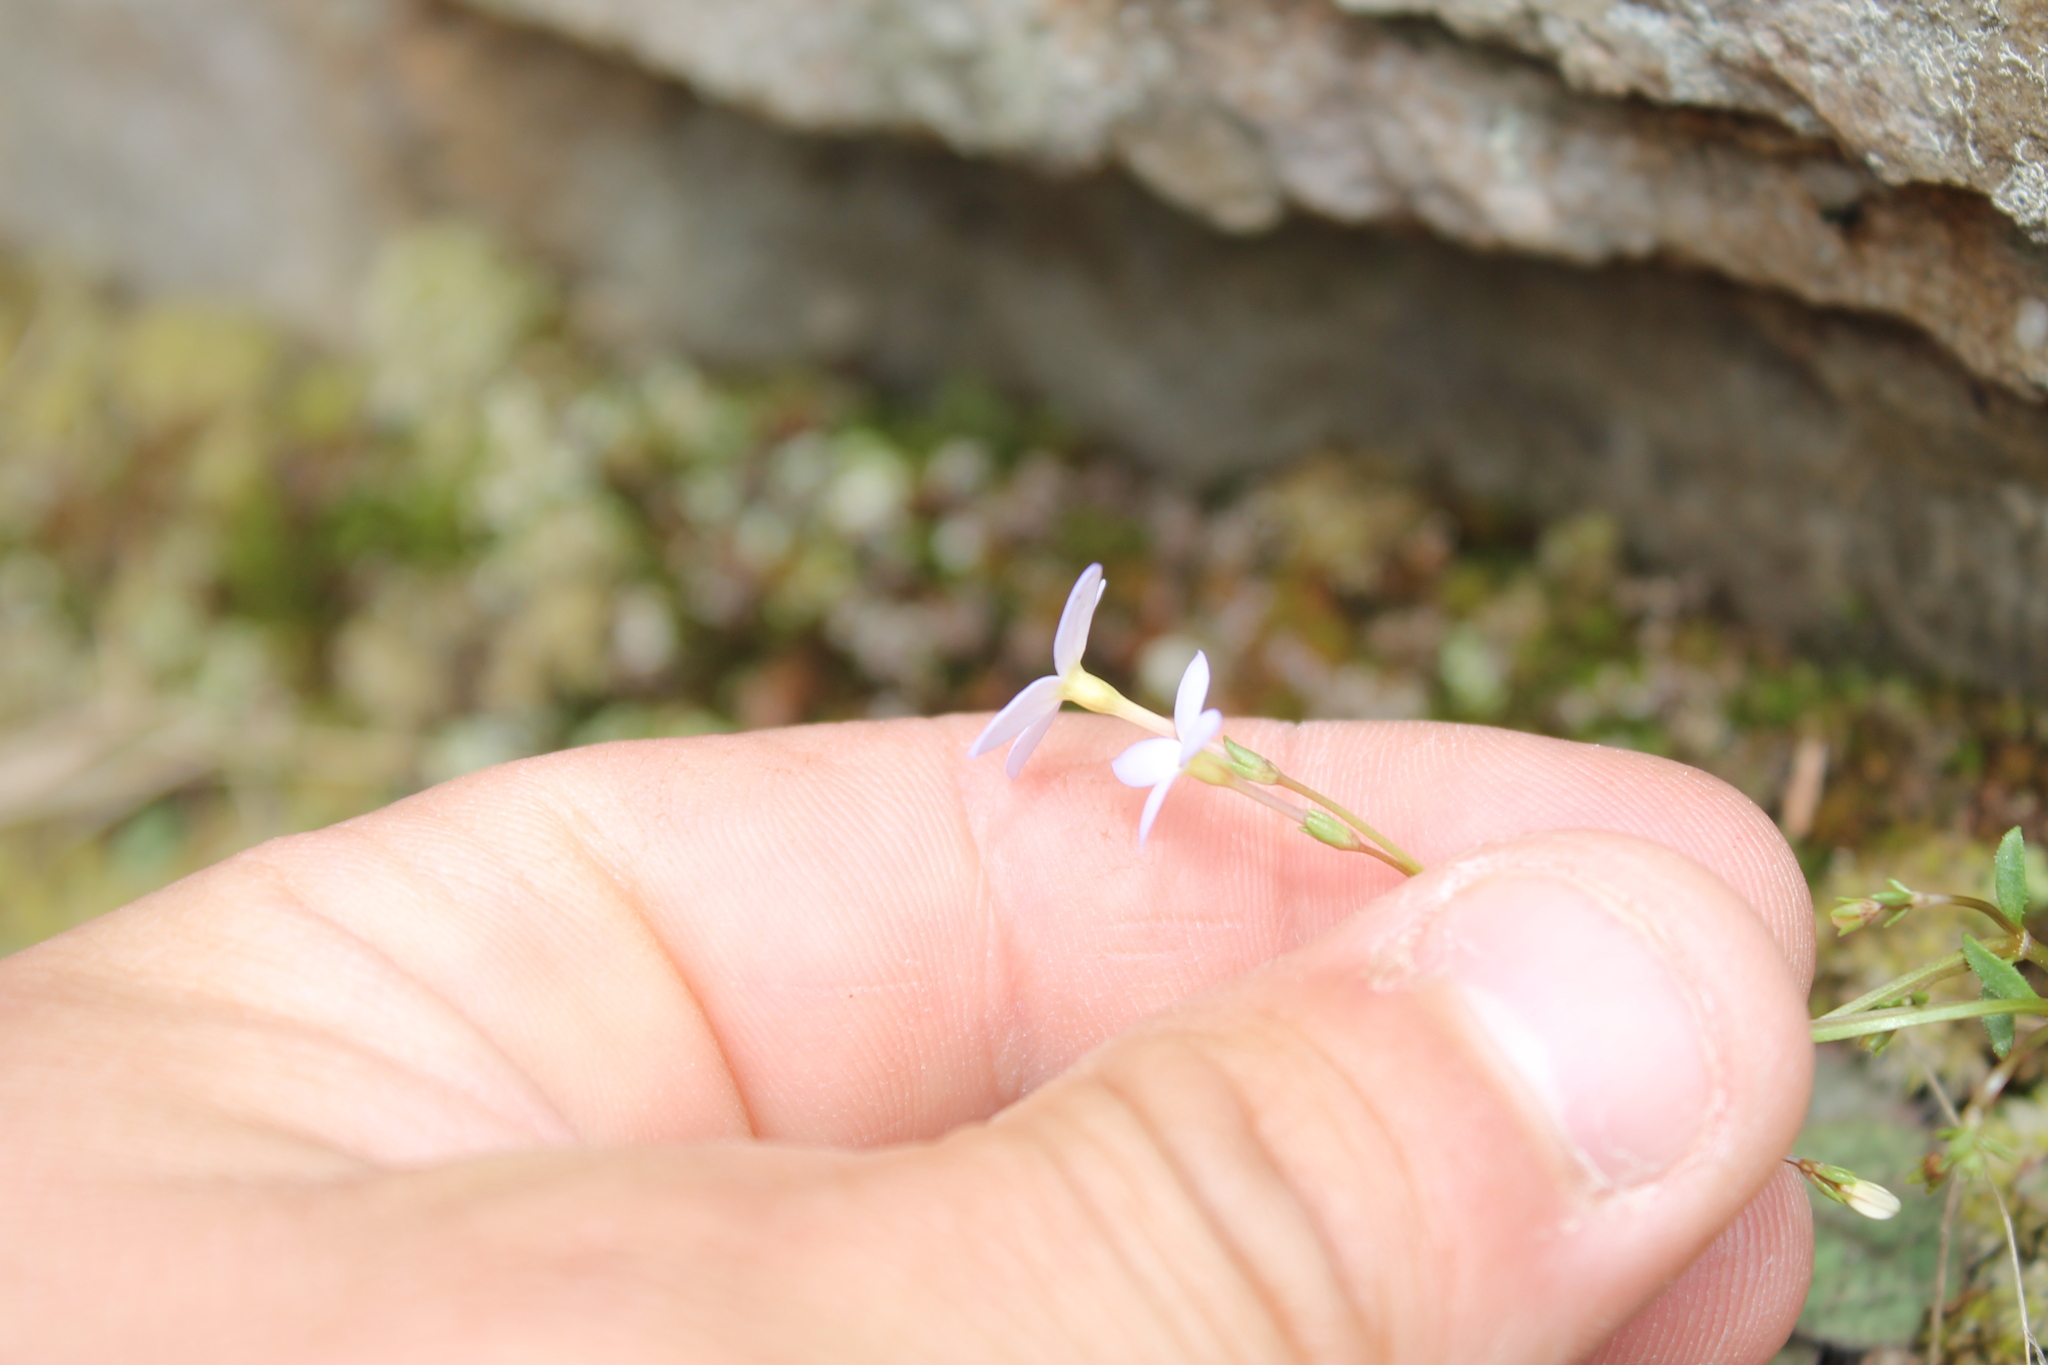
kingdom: Plantae
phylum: Tracheophyta
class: Magnoliopsida
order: Gentianales
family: Rubiaceae
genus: Houstonia
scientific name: Houstonia caerulea
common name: Bluets
